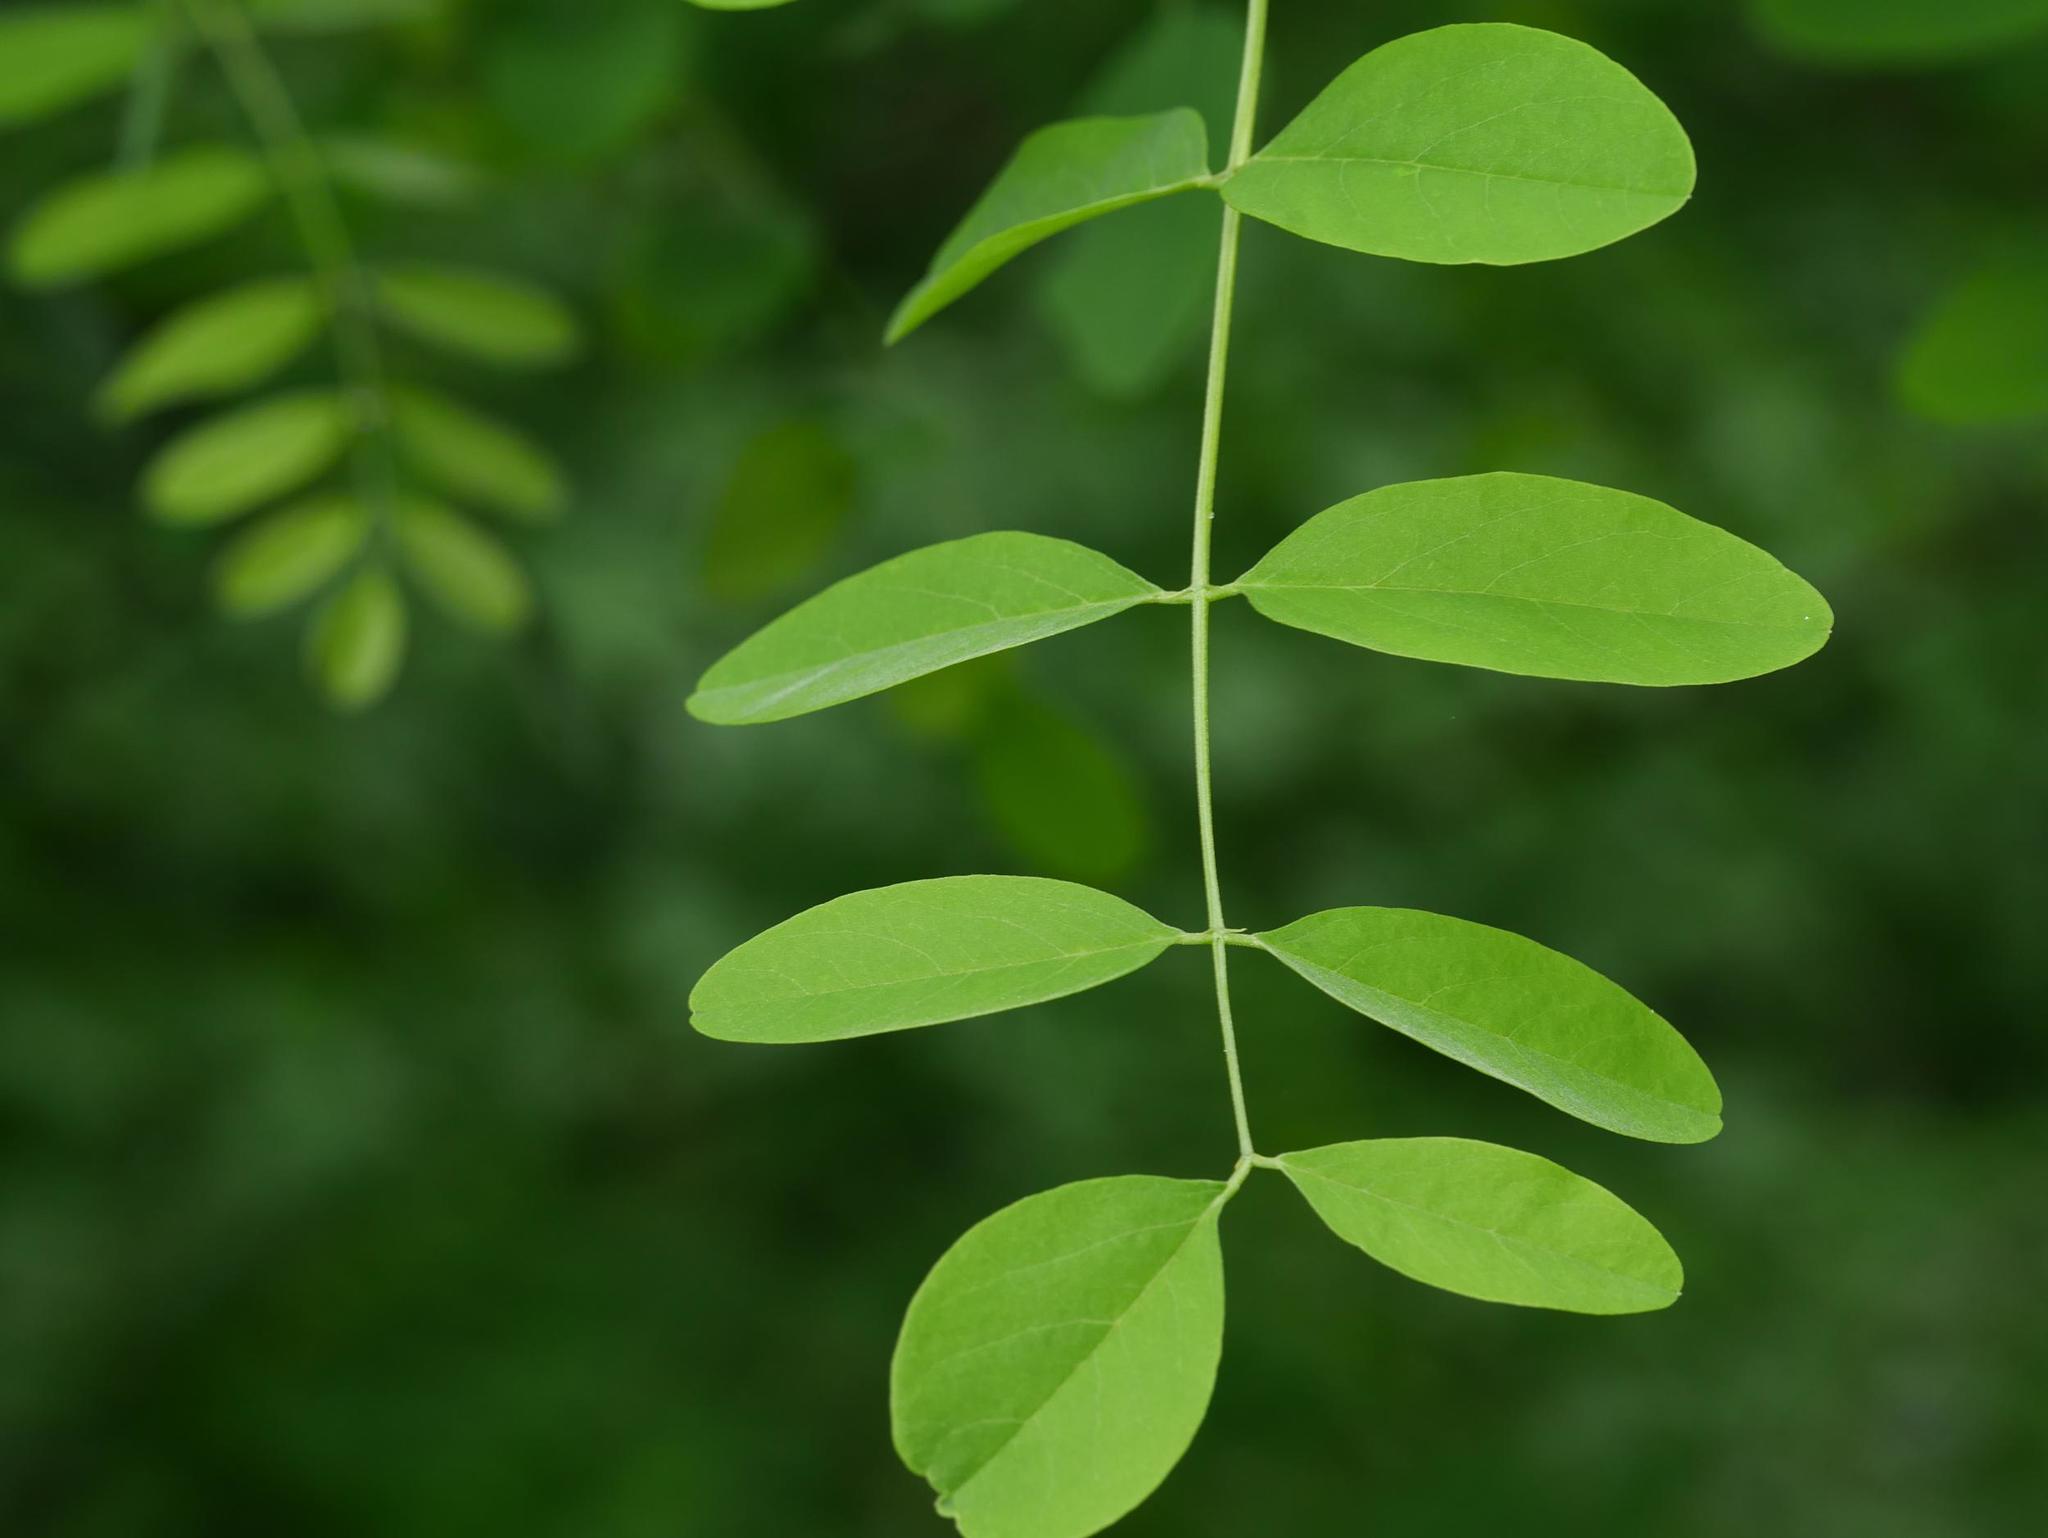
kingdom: Plantae
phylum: Tracheophyta
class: Magnoliopsida
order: Fabales
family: Fabaceae
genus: Robinia
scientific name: Robinia pseudoacacia
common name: Black locust
